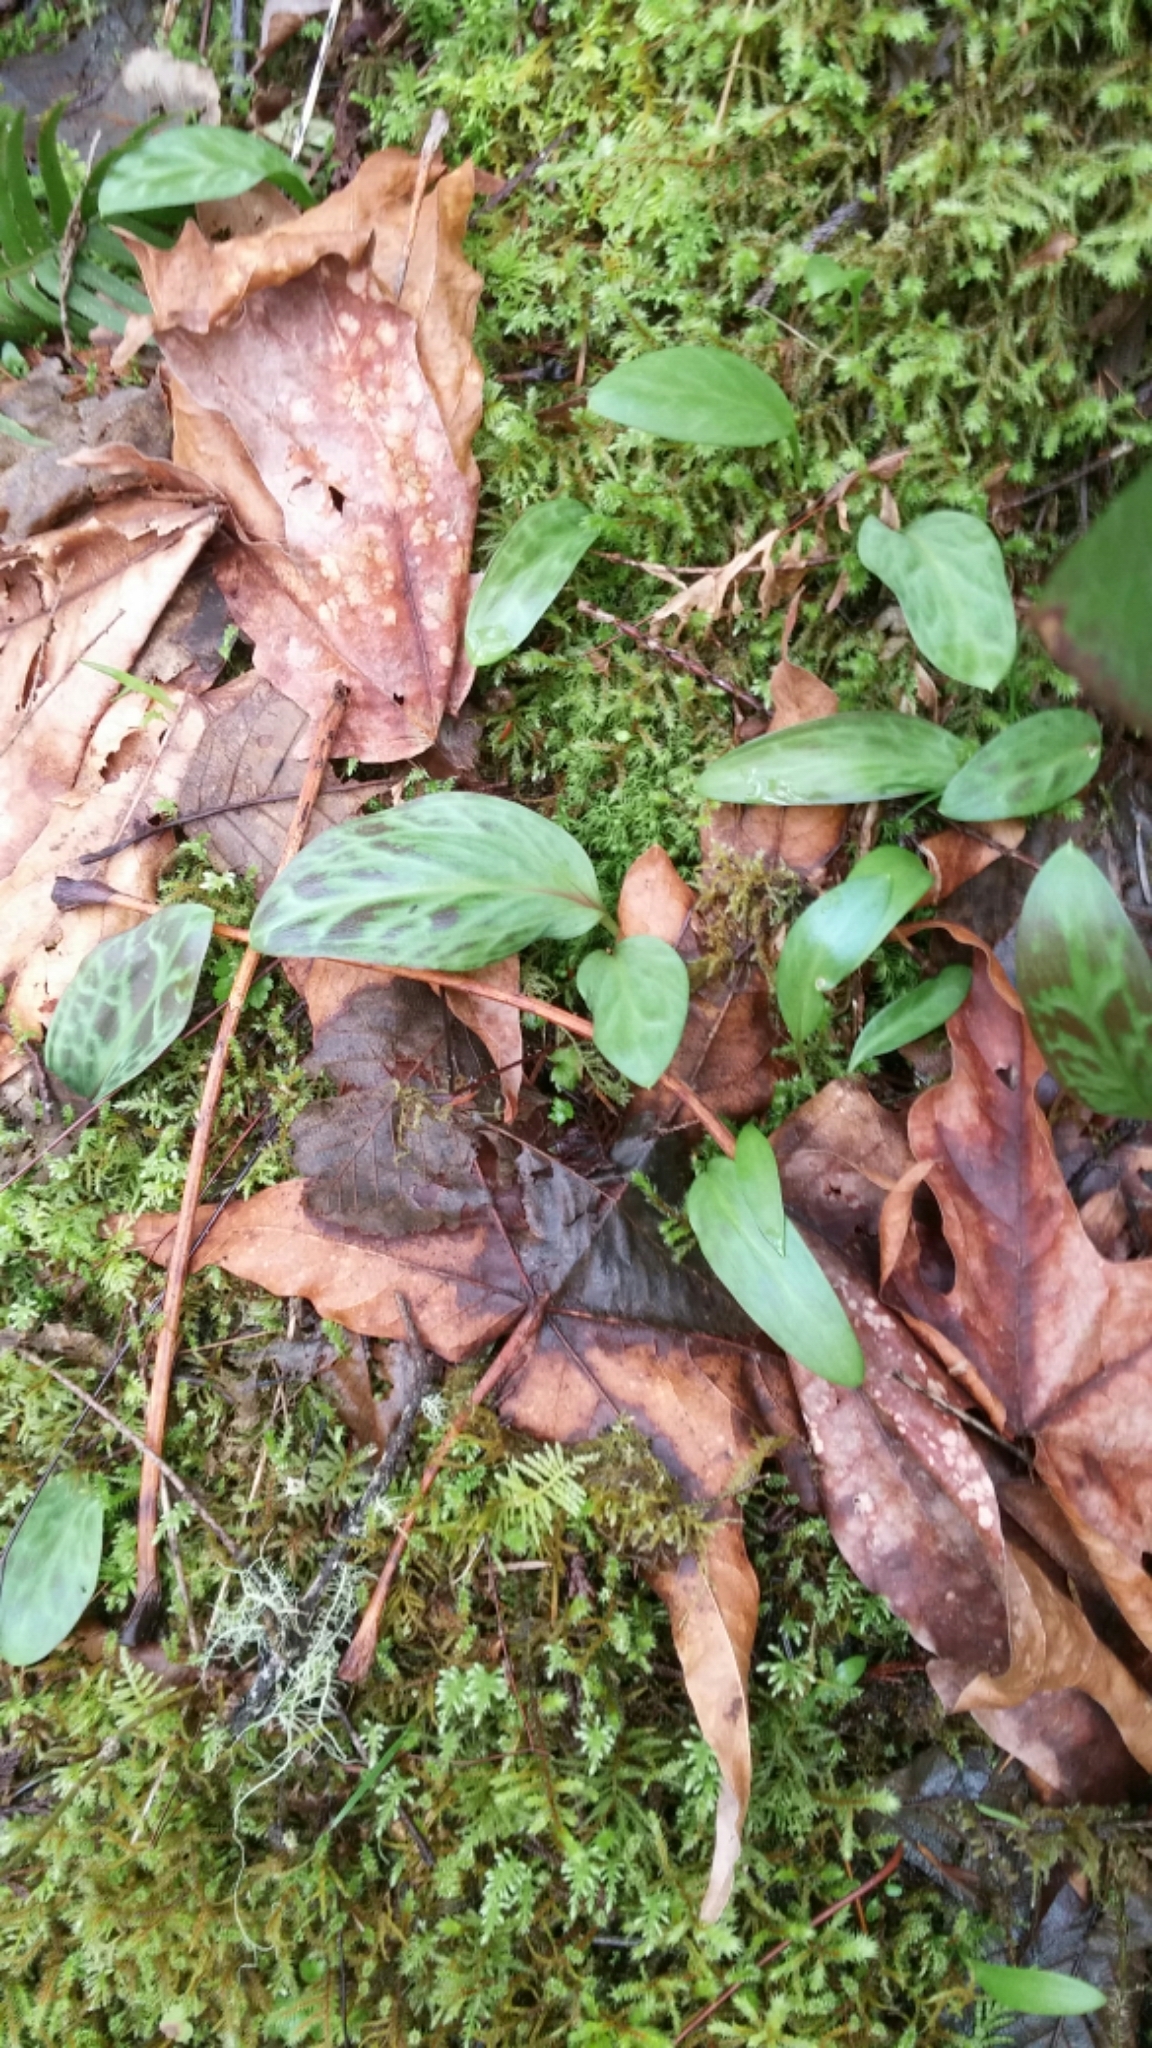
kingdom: Plantae
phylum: Tracheophyta
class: Liliopsida
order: Liliales
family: Liliaceae
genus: Erythronium
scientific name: Erythronium oregonum
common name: Giant adder's-tongue
